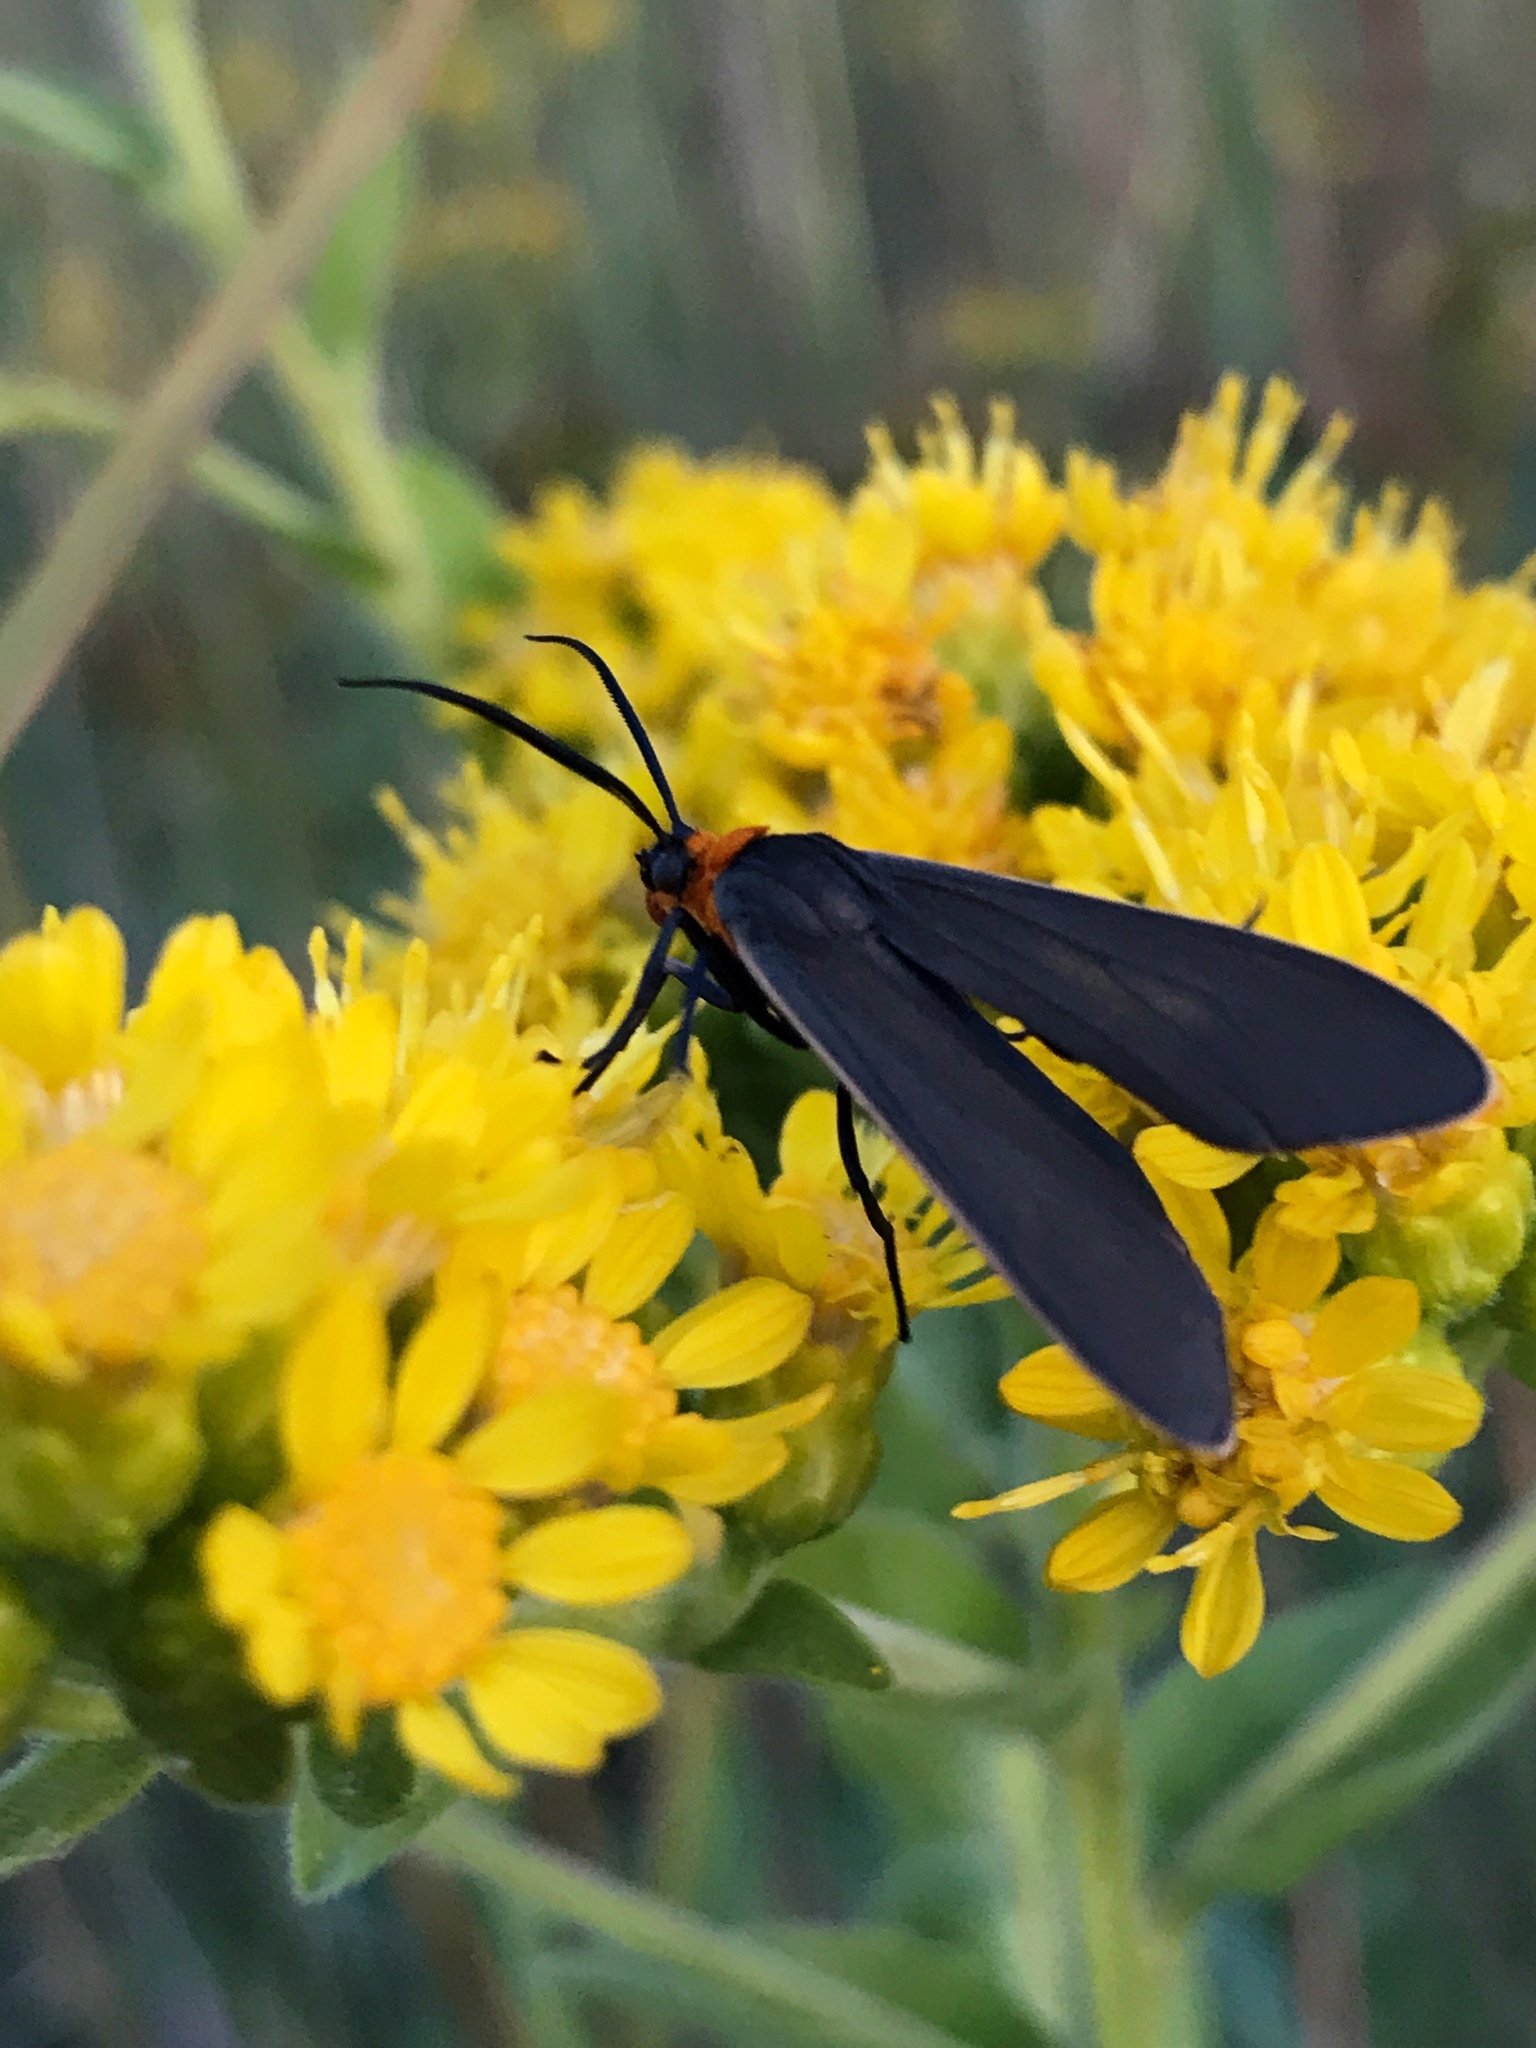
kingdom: Animalia
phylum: Arthropoda
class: Insecta
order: Lepidoptera
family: Erebidae
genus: Cisseps
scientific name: Cisseps fulvicollis
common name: Yellow-collared scape moth
